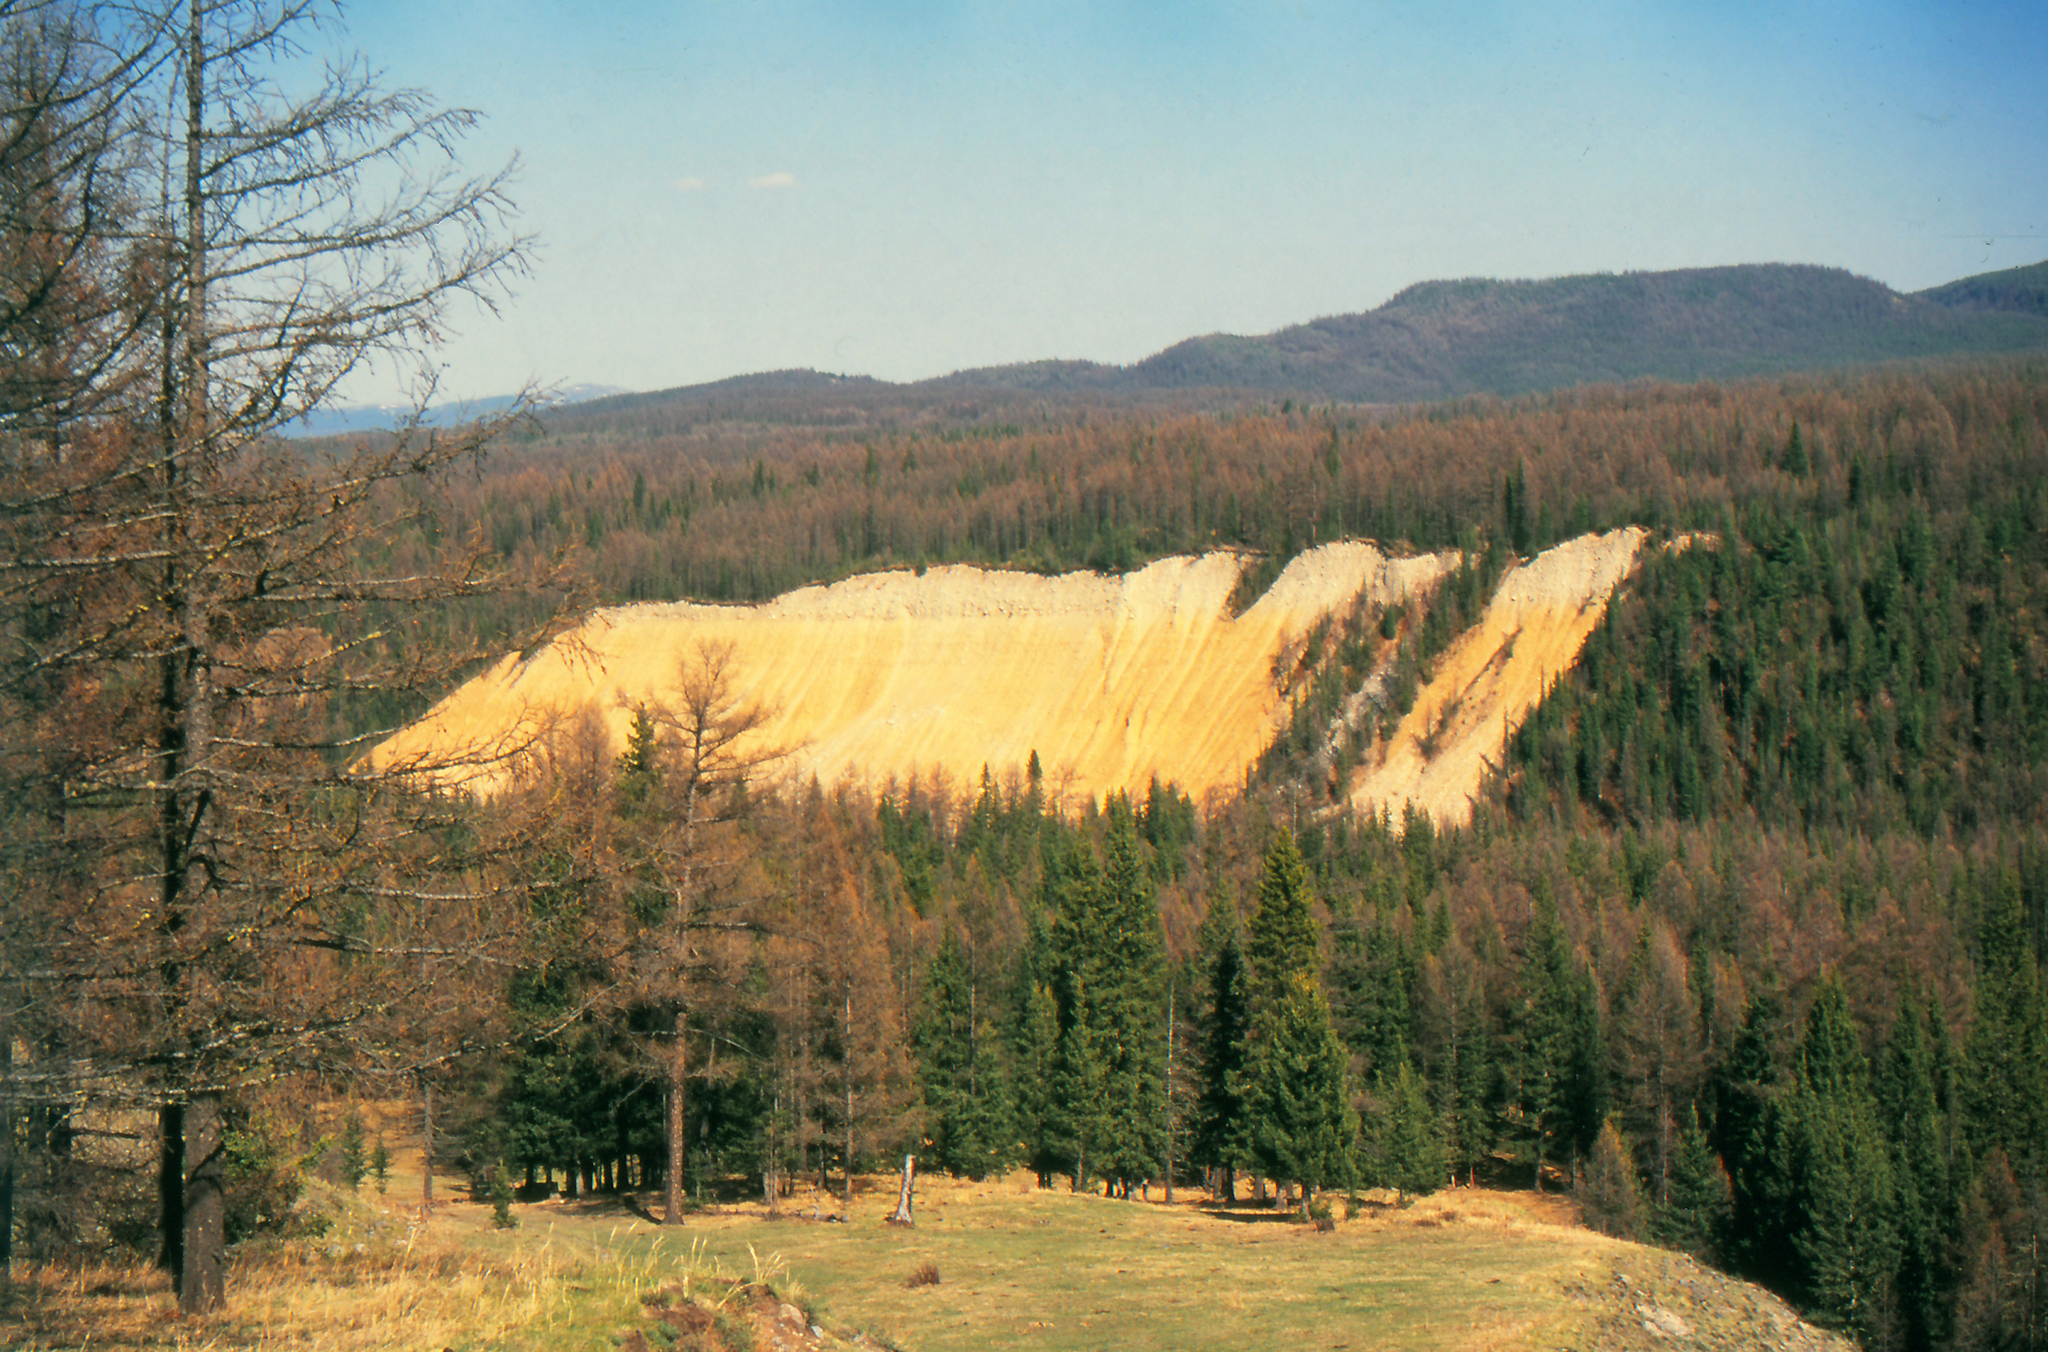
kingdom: Plantae
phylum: Tracheophyta
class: Pinopsida
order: Pinales
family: Pinaceae
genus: Picea
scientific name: Picea obovata
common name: Siberian spruce
